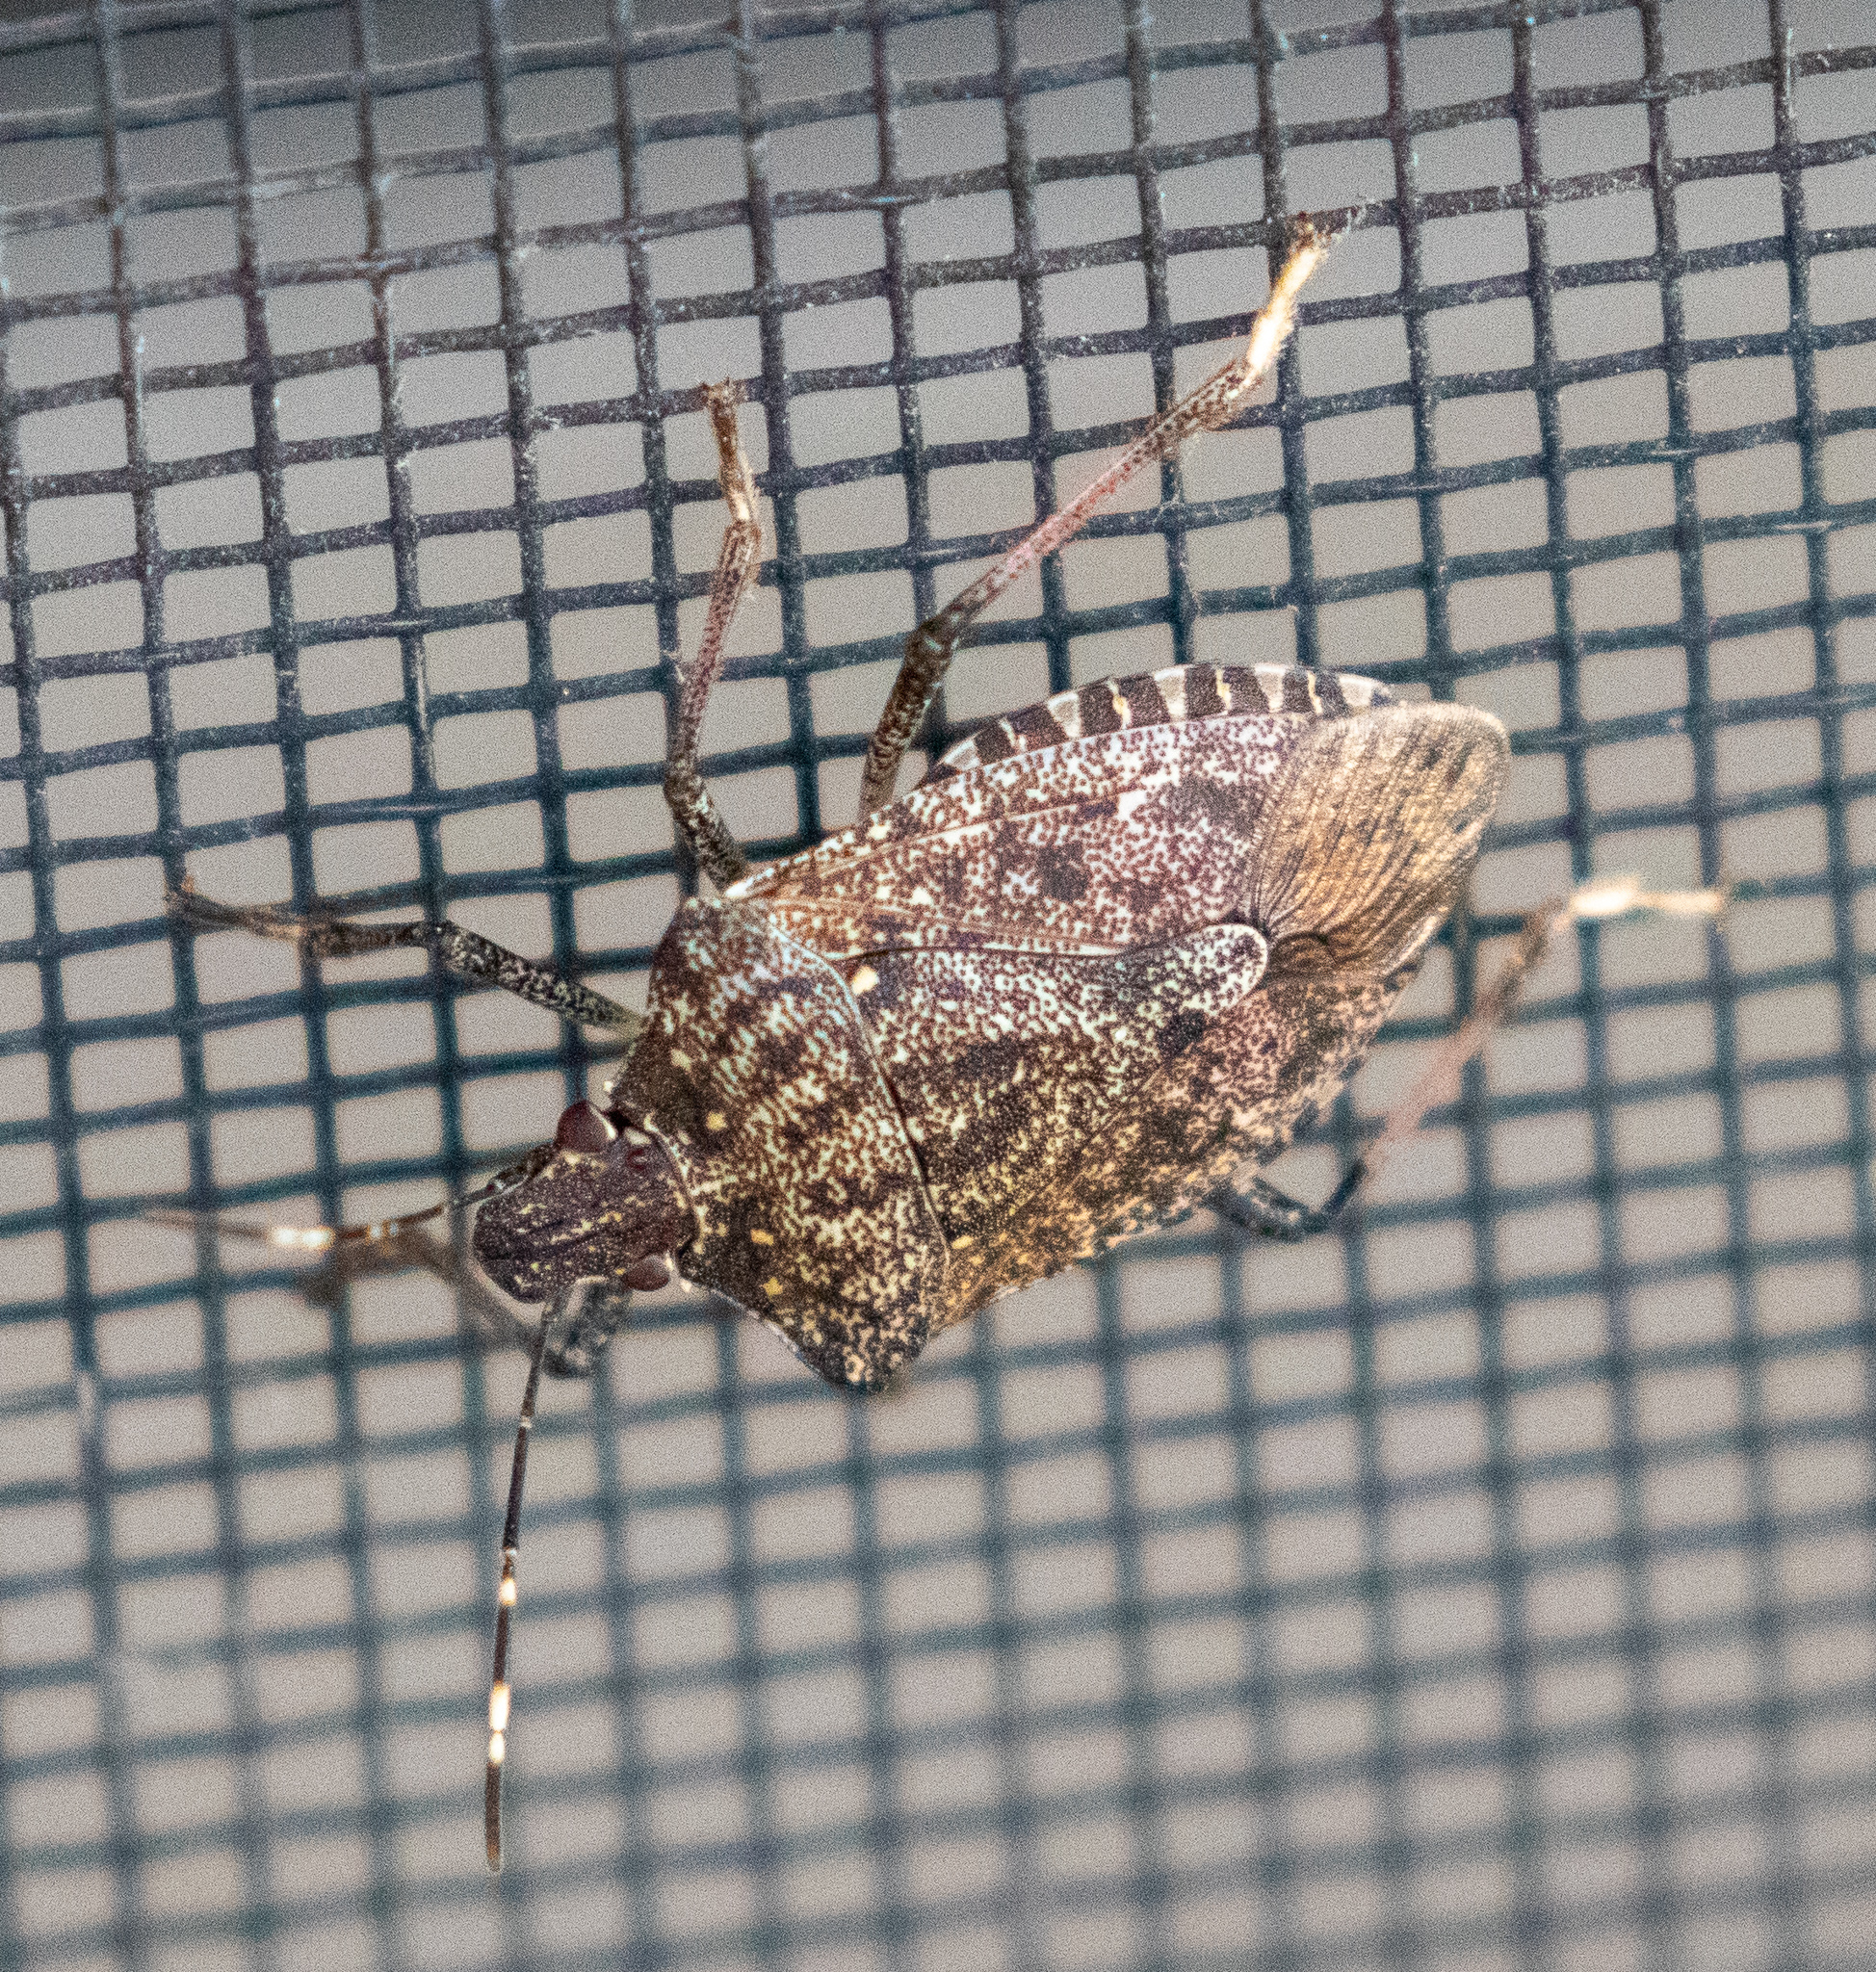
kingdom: Animalia
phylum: Arthropoda
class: Insecta
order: Hemiptera
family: Pentatomidae
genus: Halyomorpha
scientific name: Halyomorpha halys
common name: Brown marmorated stink bug
